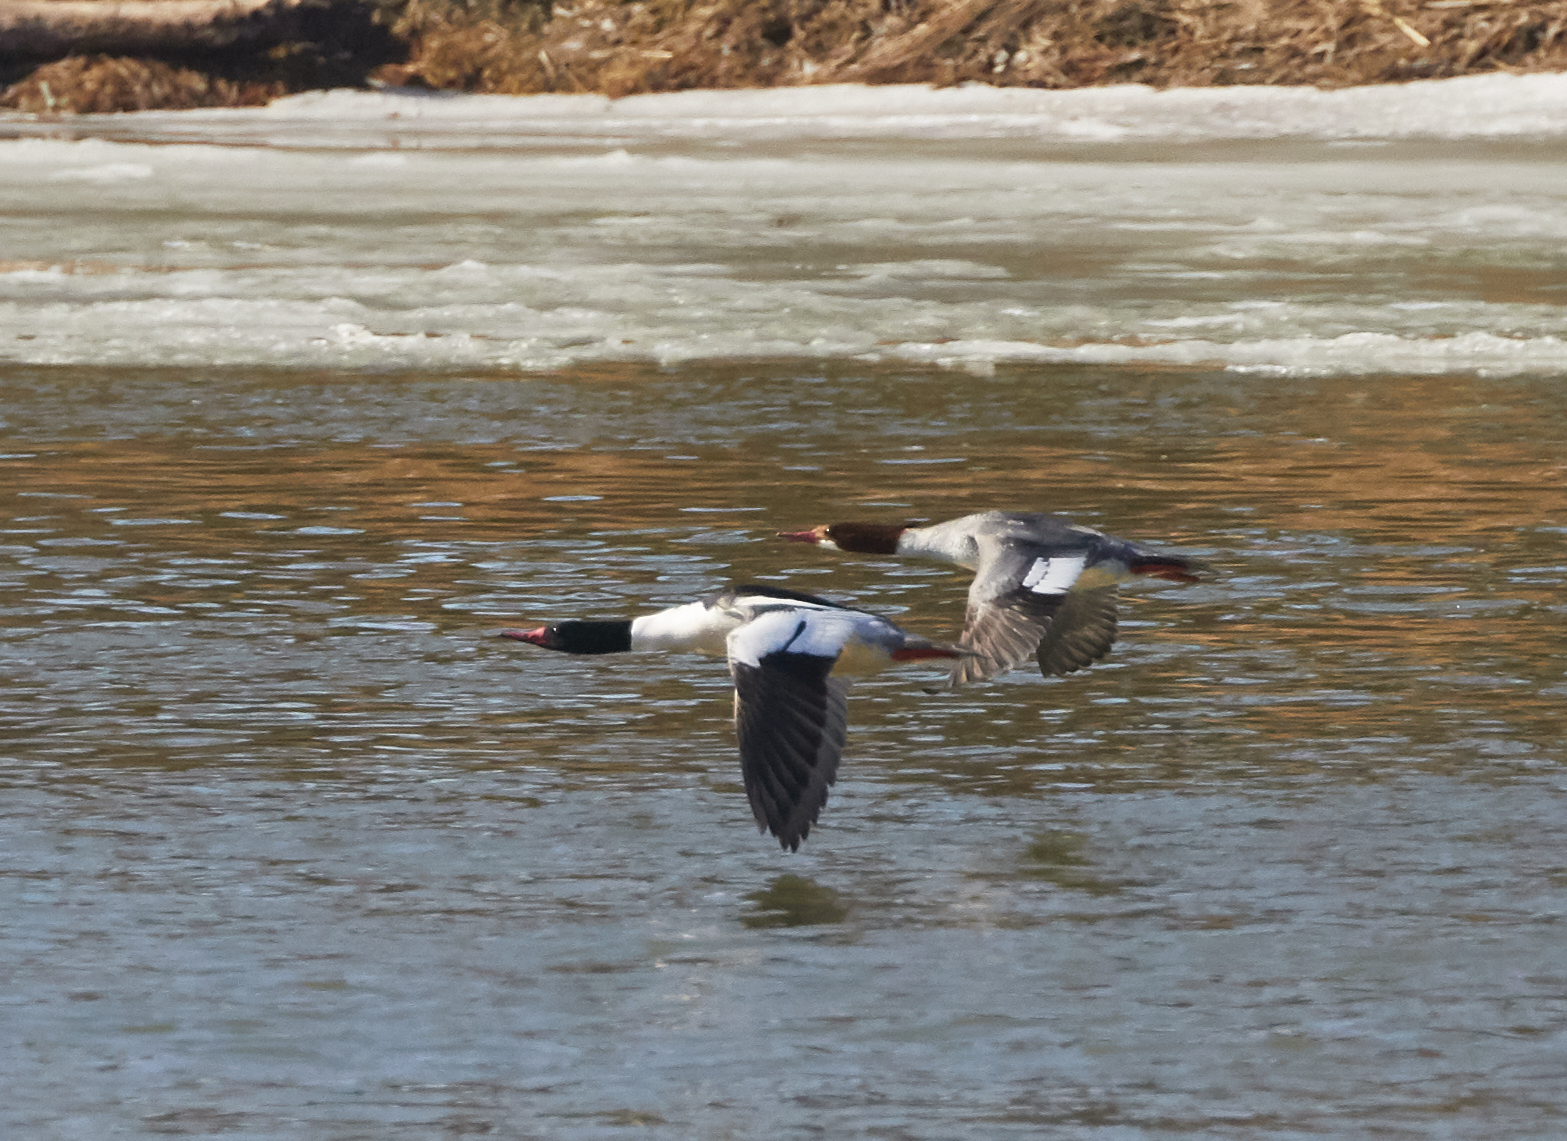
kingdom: Animalia
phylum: Chordata
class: Aves
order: Anseriformes
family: Anatidae
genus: Mergus
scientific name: Mergus merganser
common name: Common merganser
